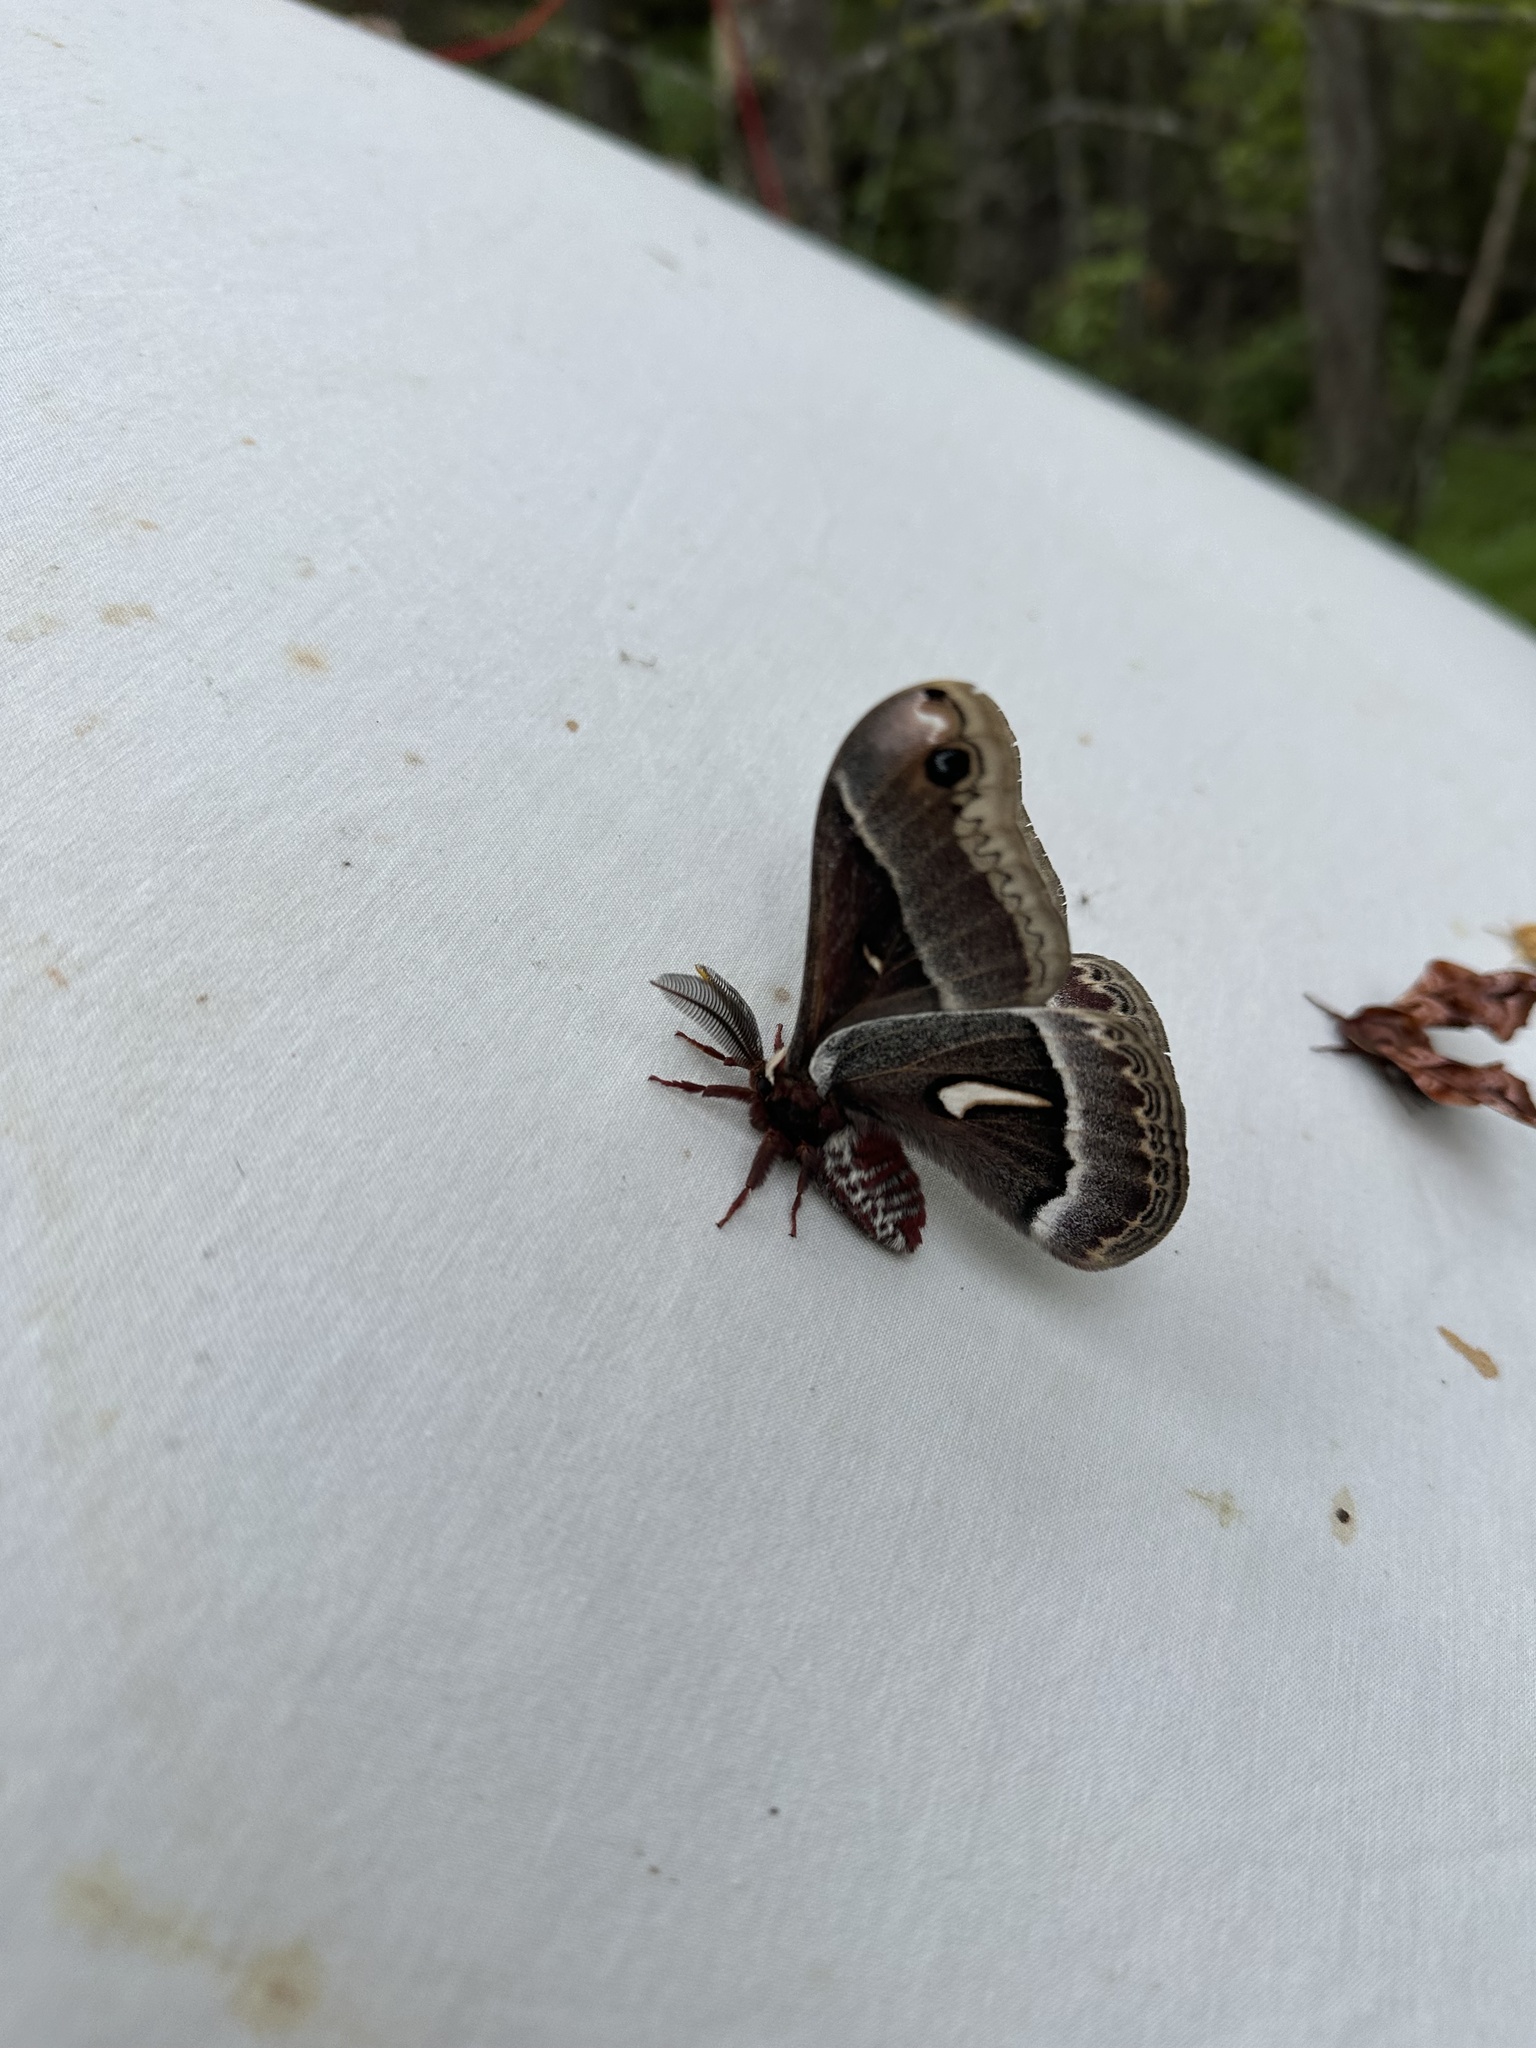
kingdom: Animalia
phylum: Arthropoda
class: Insecta
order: Lepidoptera
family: Saturniidae
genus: Hyalophora
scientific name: Hyalophora euryalus
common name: Ceanothus silkmoth
